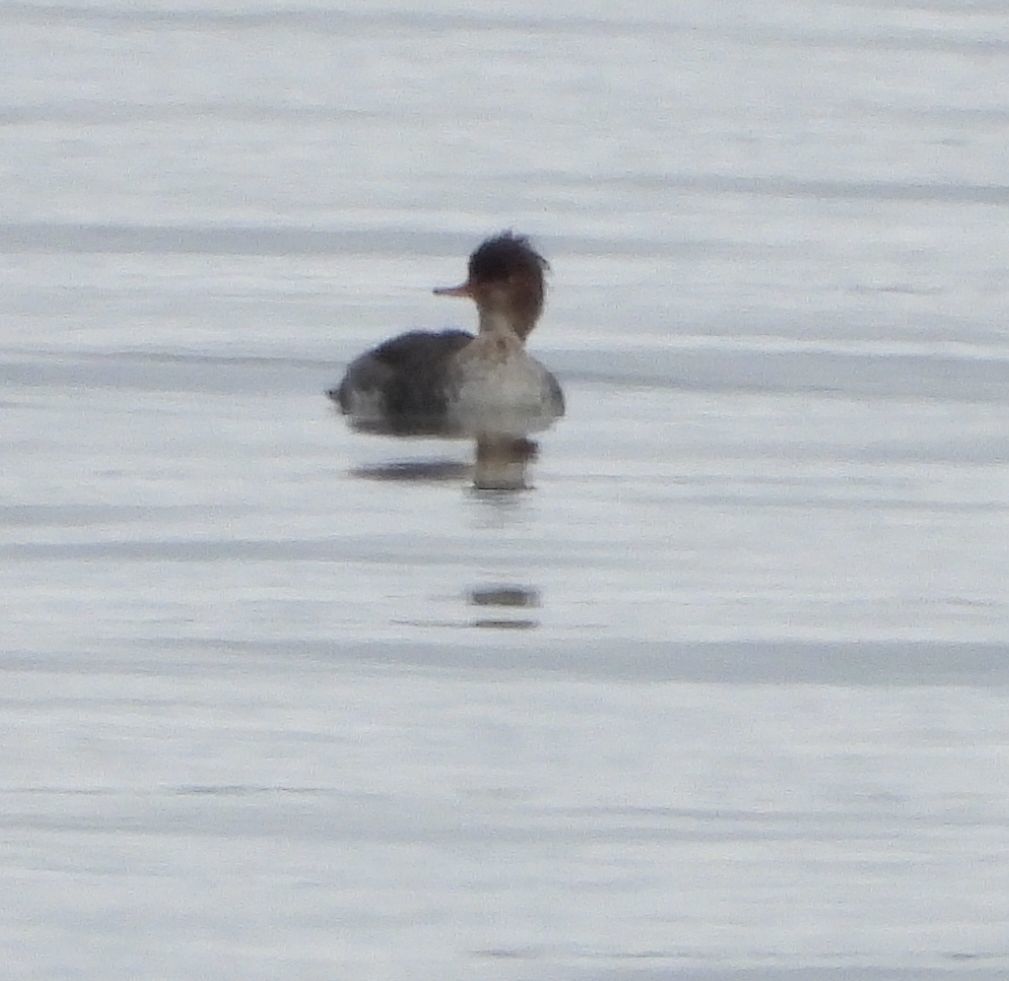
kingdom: Animalia
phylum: Chordata
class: Aves
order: Anseriformes
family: Anatidae
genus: Mergus
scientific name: Mergus serrator
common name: Red-breasted merganser
